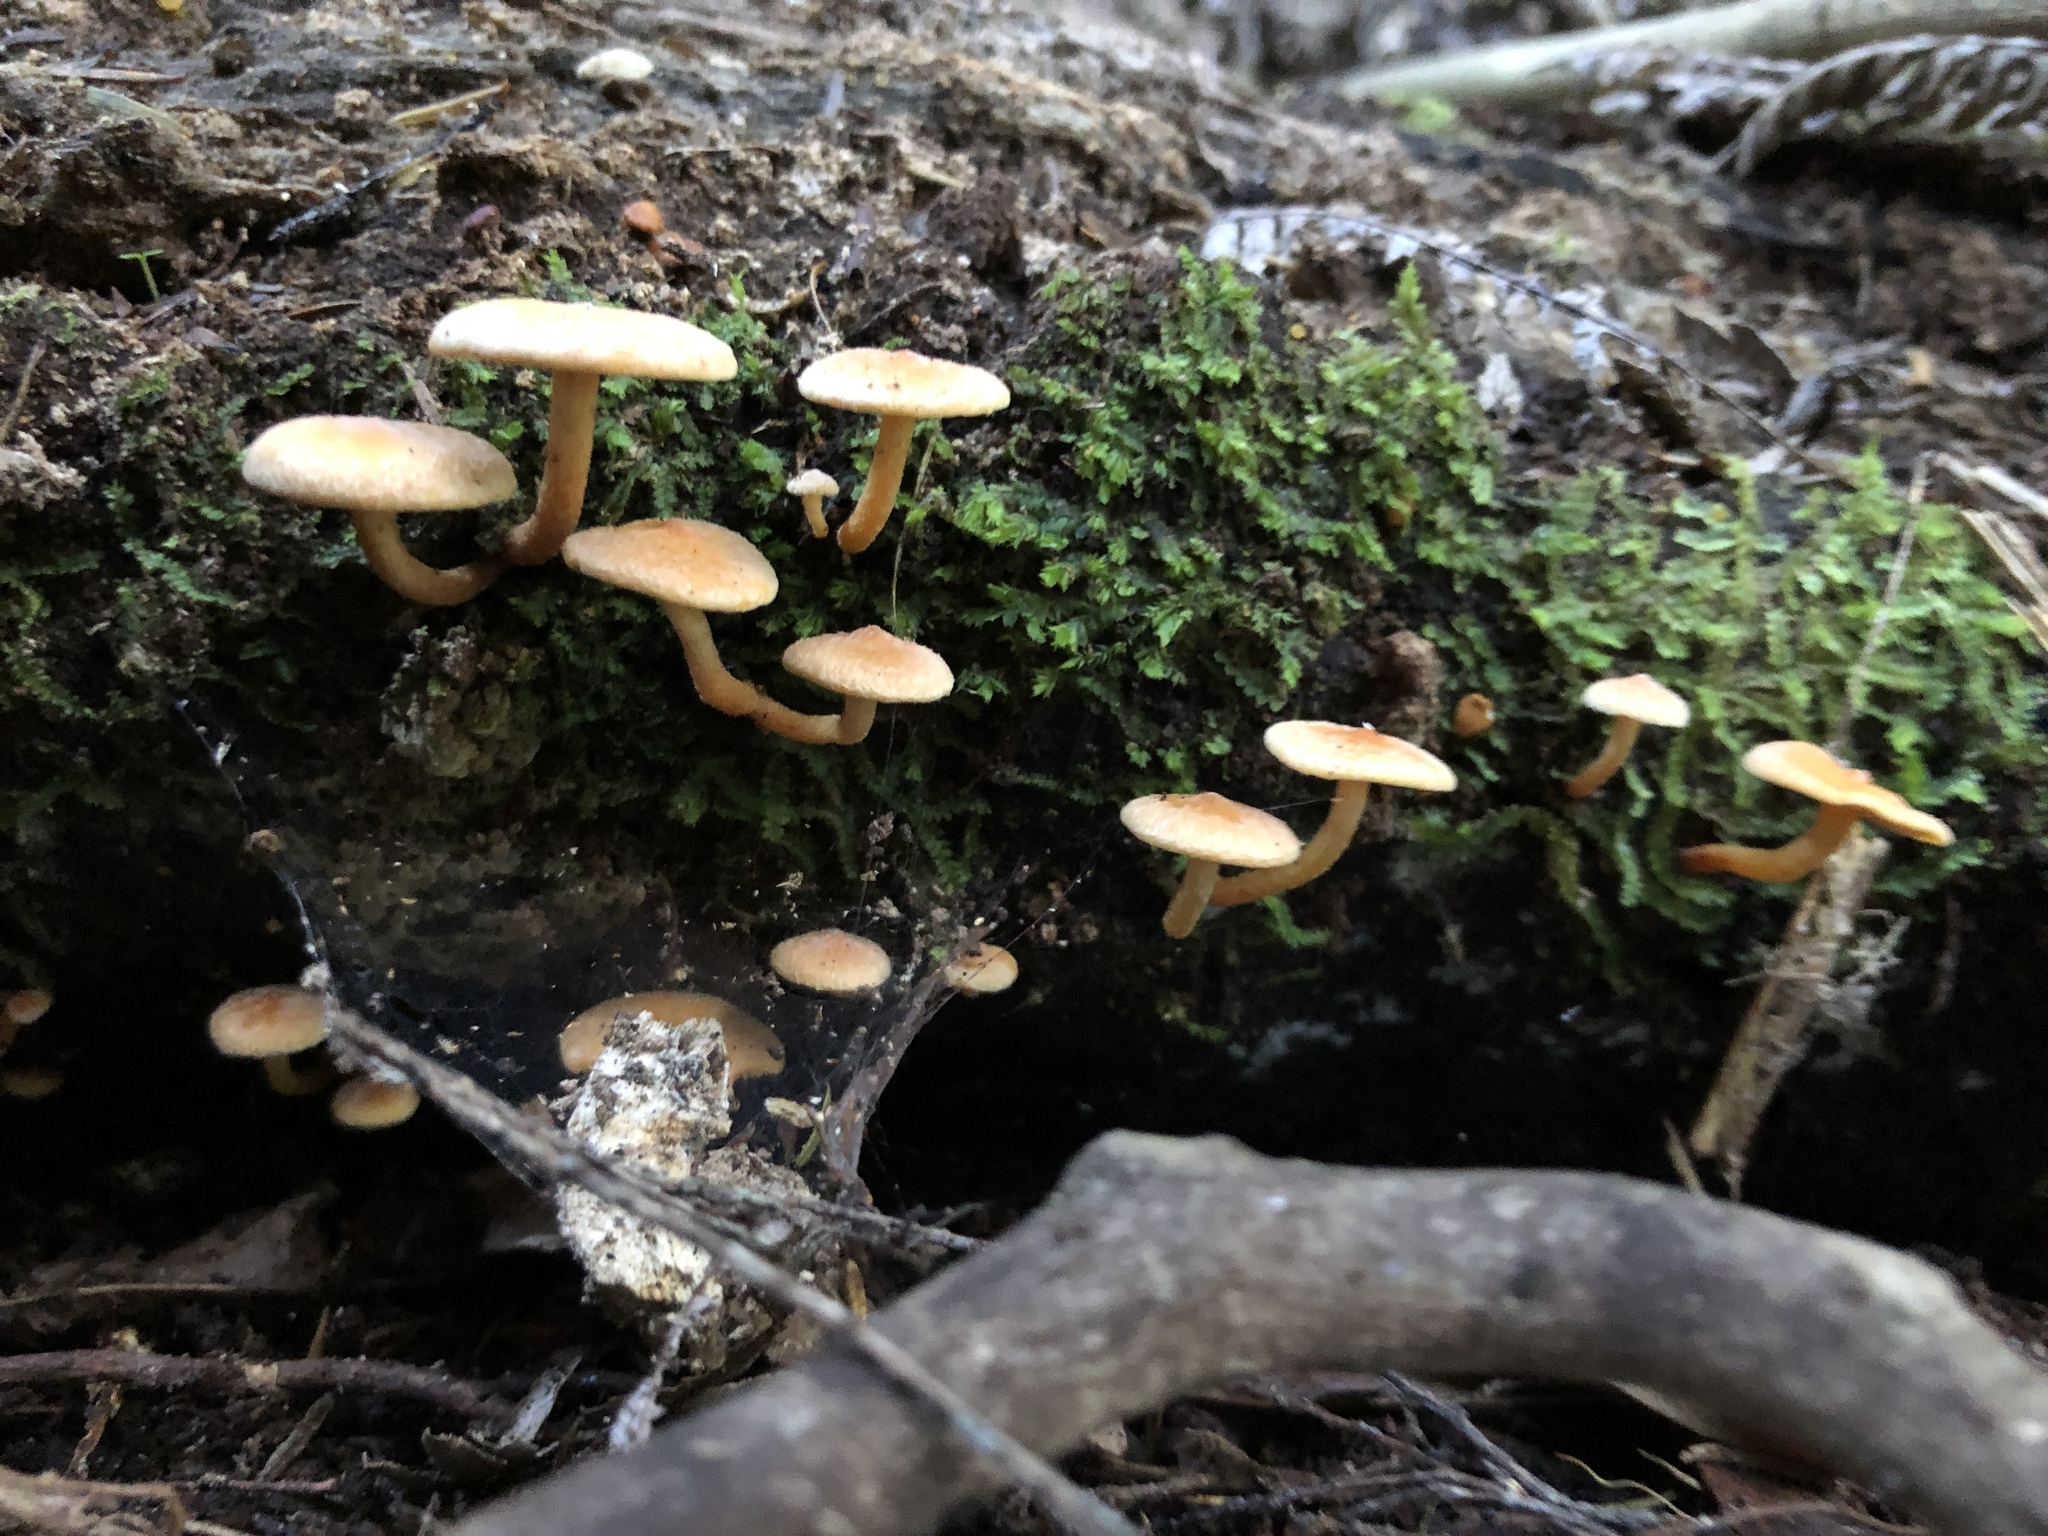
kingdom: Fungi
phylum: Basidiomycota
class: Agaricomycetes
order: Agaricales
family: Strophariaceae
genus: Hypholoma
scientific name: Hypholoma acutum
